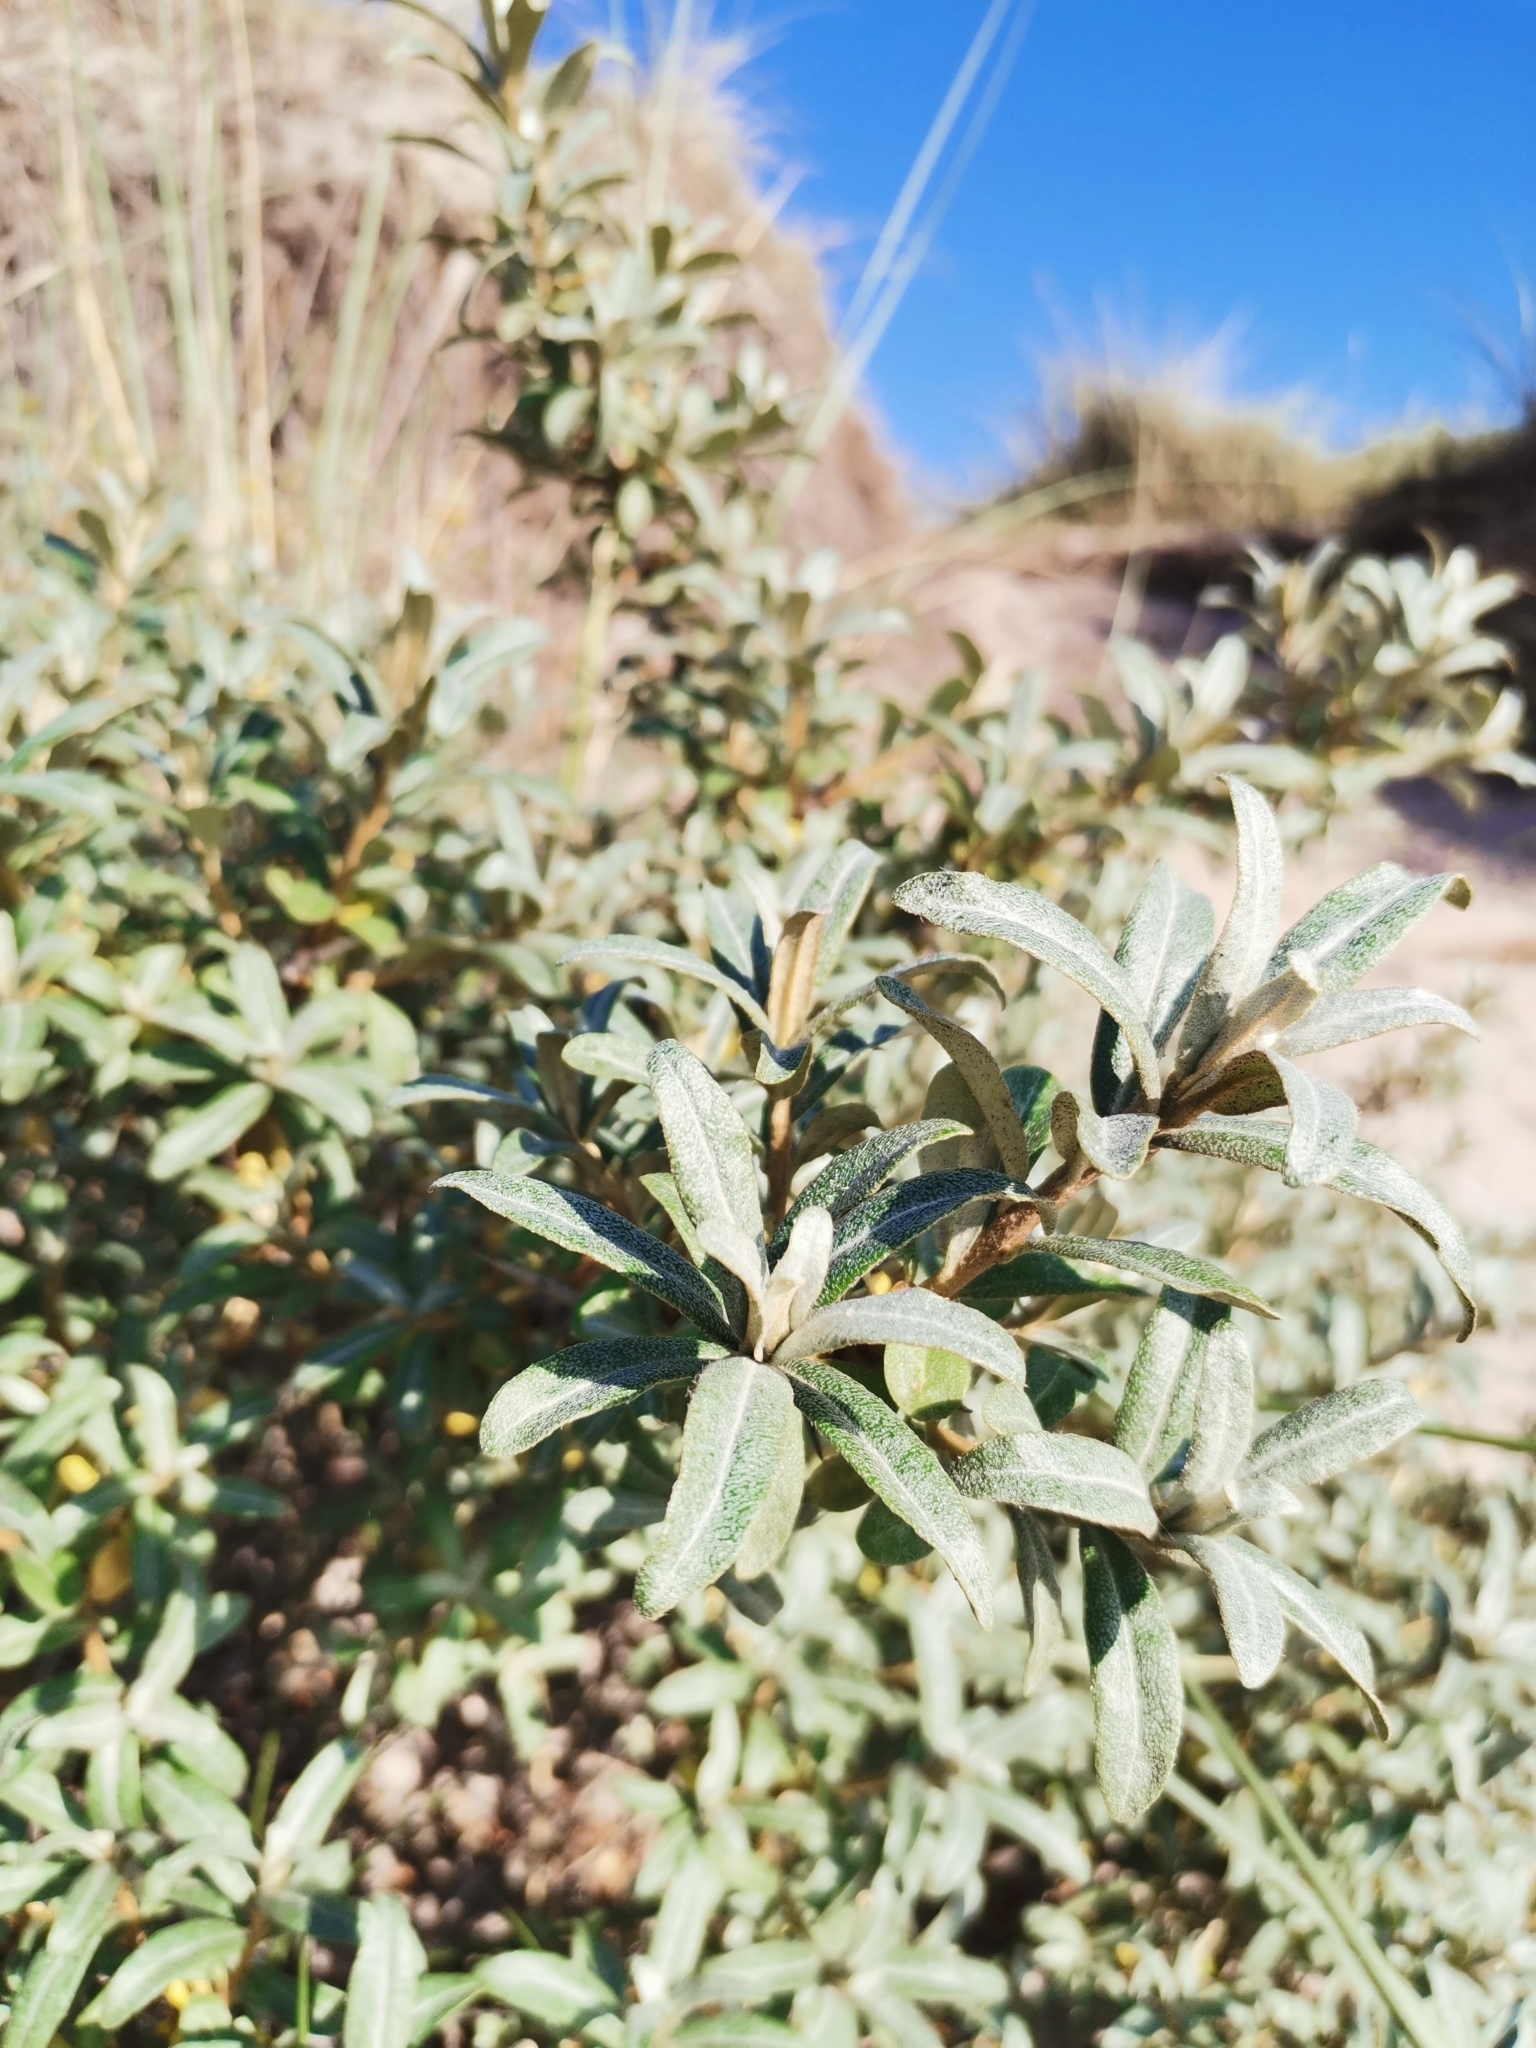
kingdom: Plantae
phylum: Tracheophyta
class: Magnoliopsida
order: Rosales
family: Elaeagnaceae
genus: Hippophae
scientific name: Hippophae rhamnoides
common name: Sea-buckthorn
